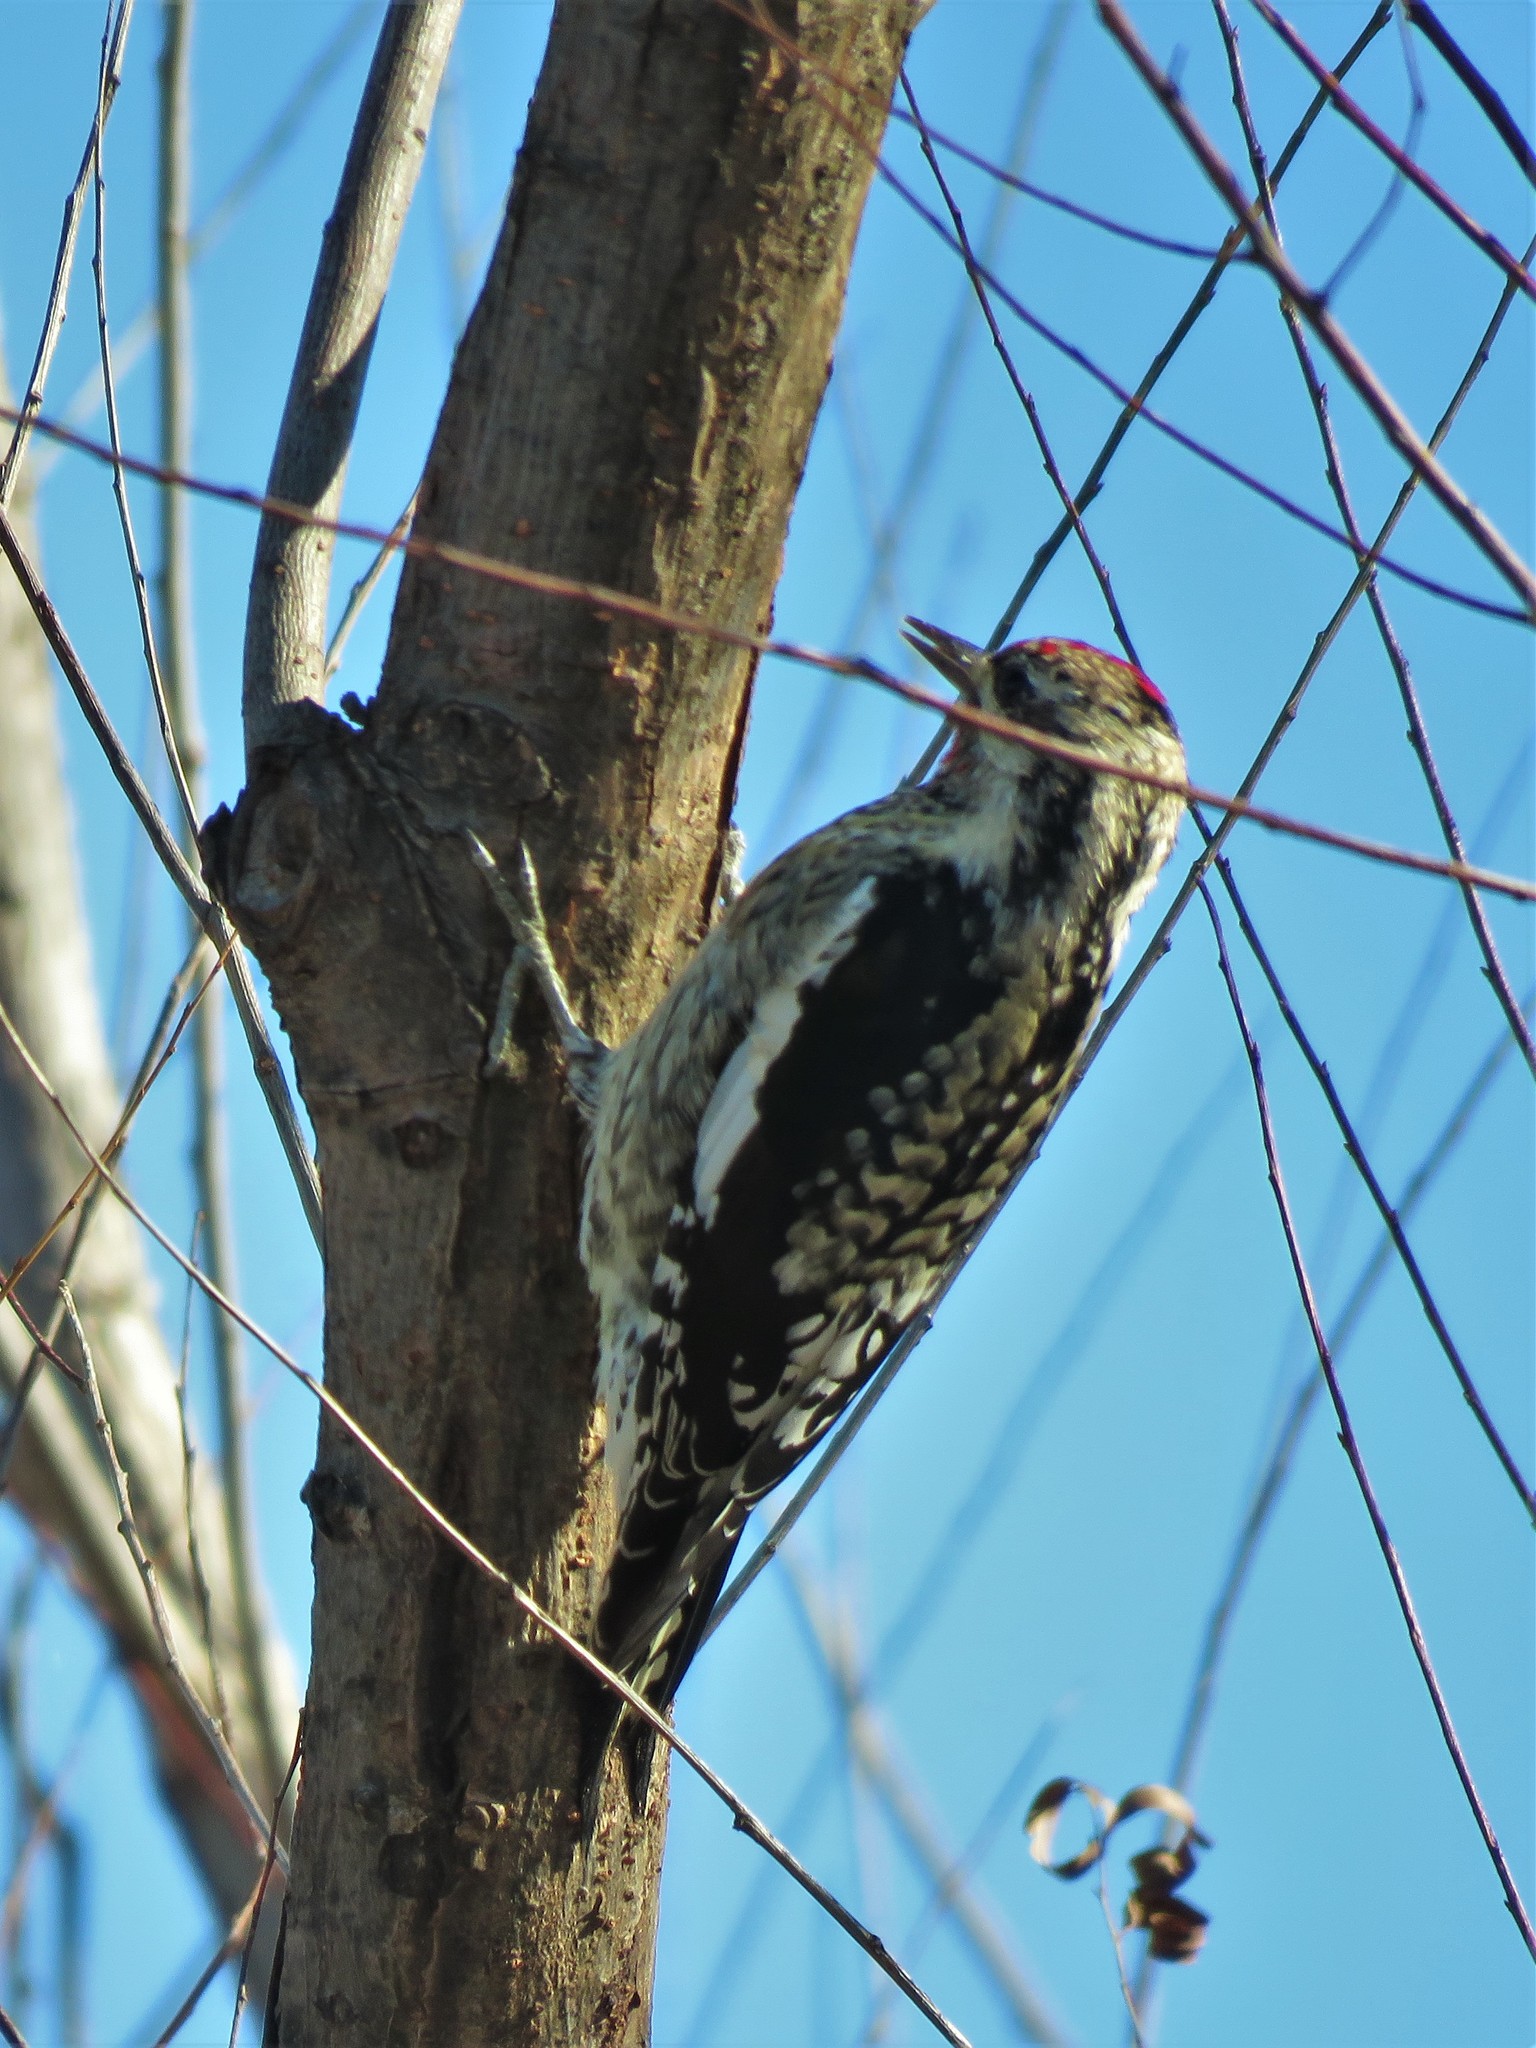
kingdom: Animalia
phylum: Chordata
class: Aves
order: Piciformes
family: Picidae
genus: Sphyrapicus
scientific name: Sphyrapicus varius
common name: Yellow-bellied sapsucker
